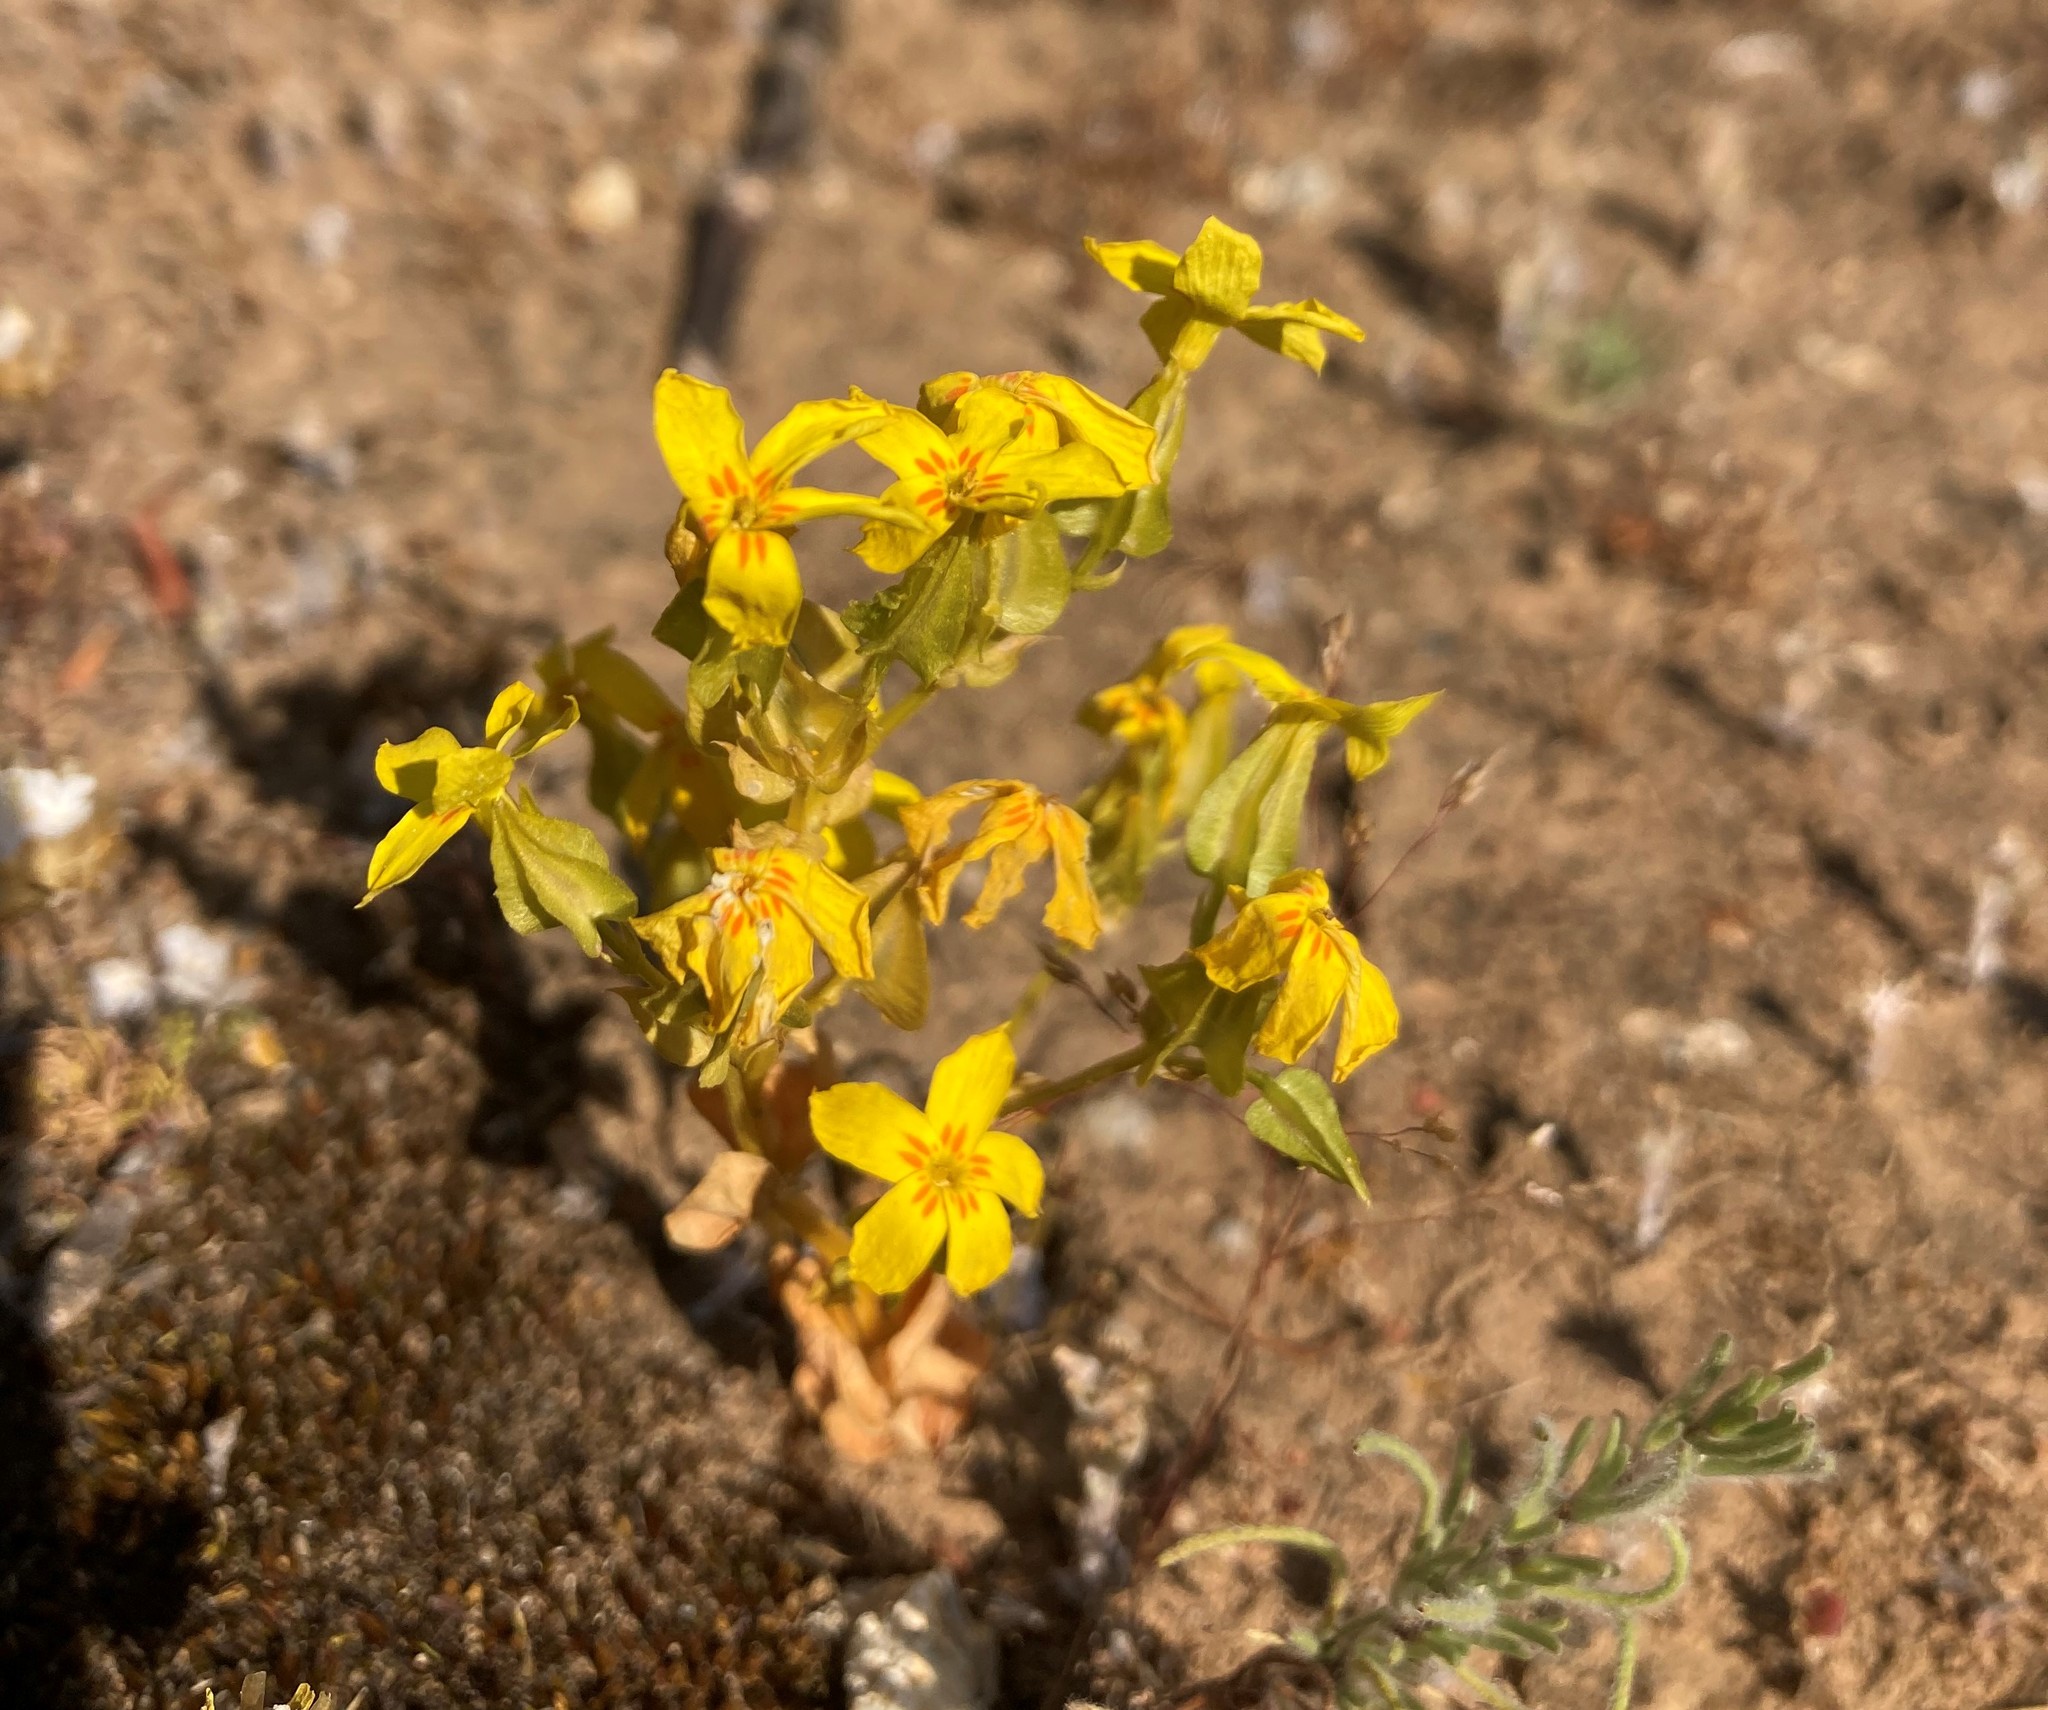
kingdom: Plantae
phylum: Tracheophyta
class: Magnoliopsida
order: Gentianales
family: Gentianaceae
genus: Sebaea
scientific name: Sebaea exacoides
